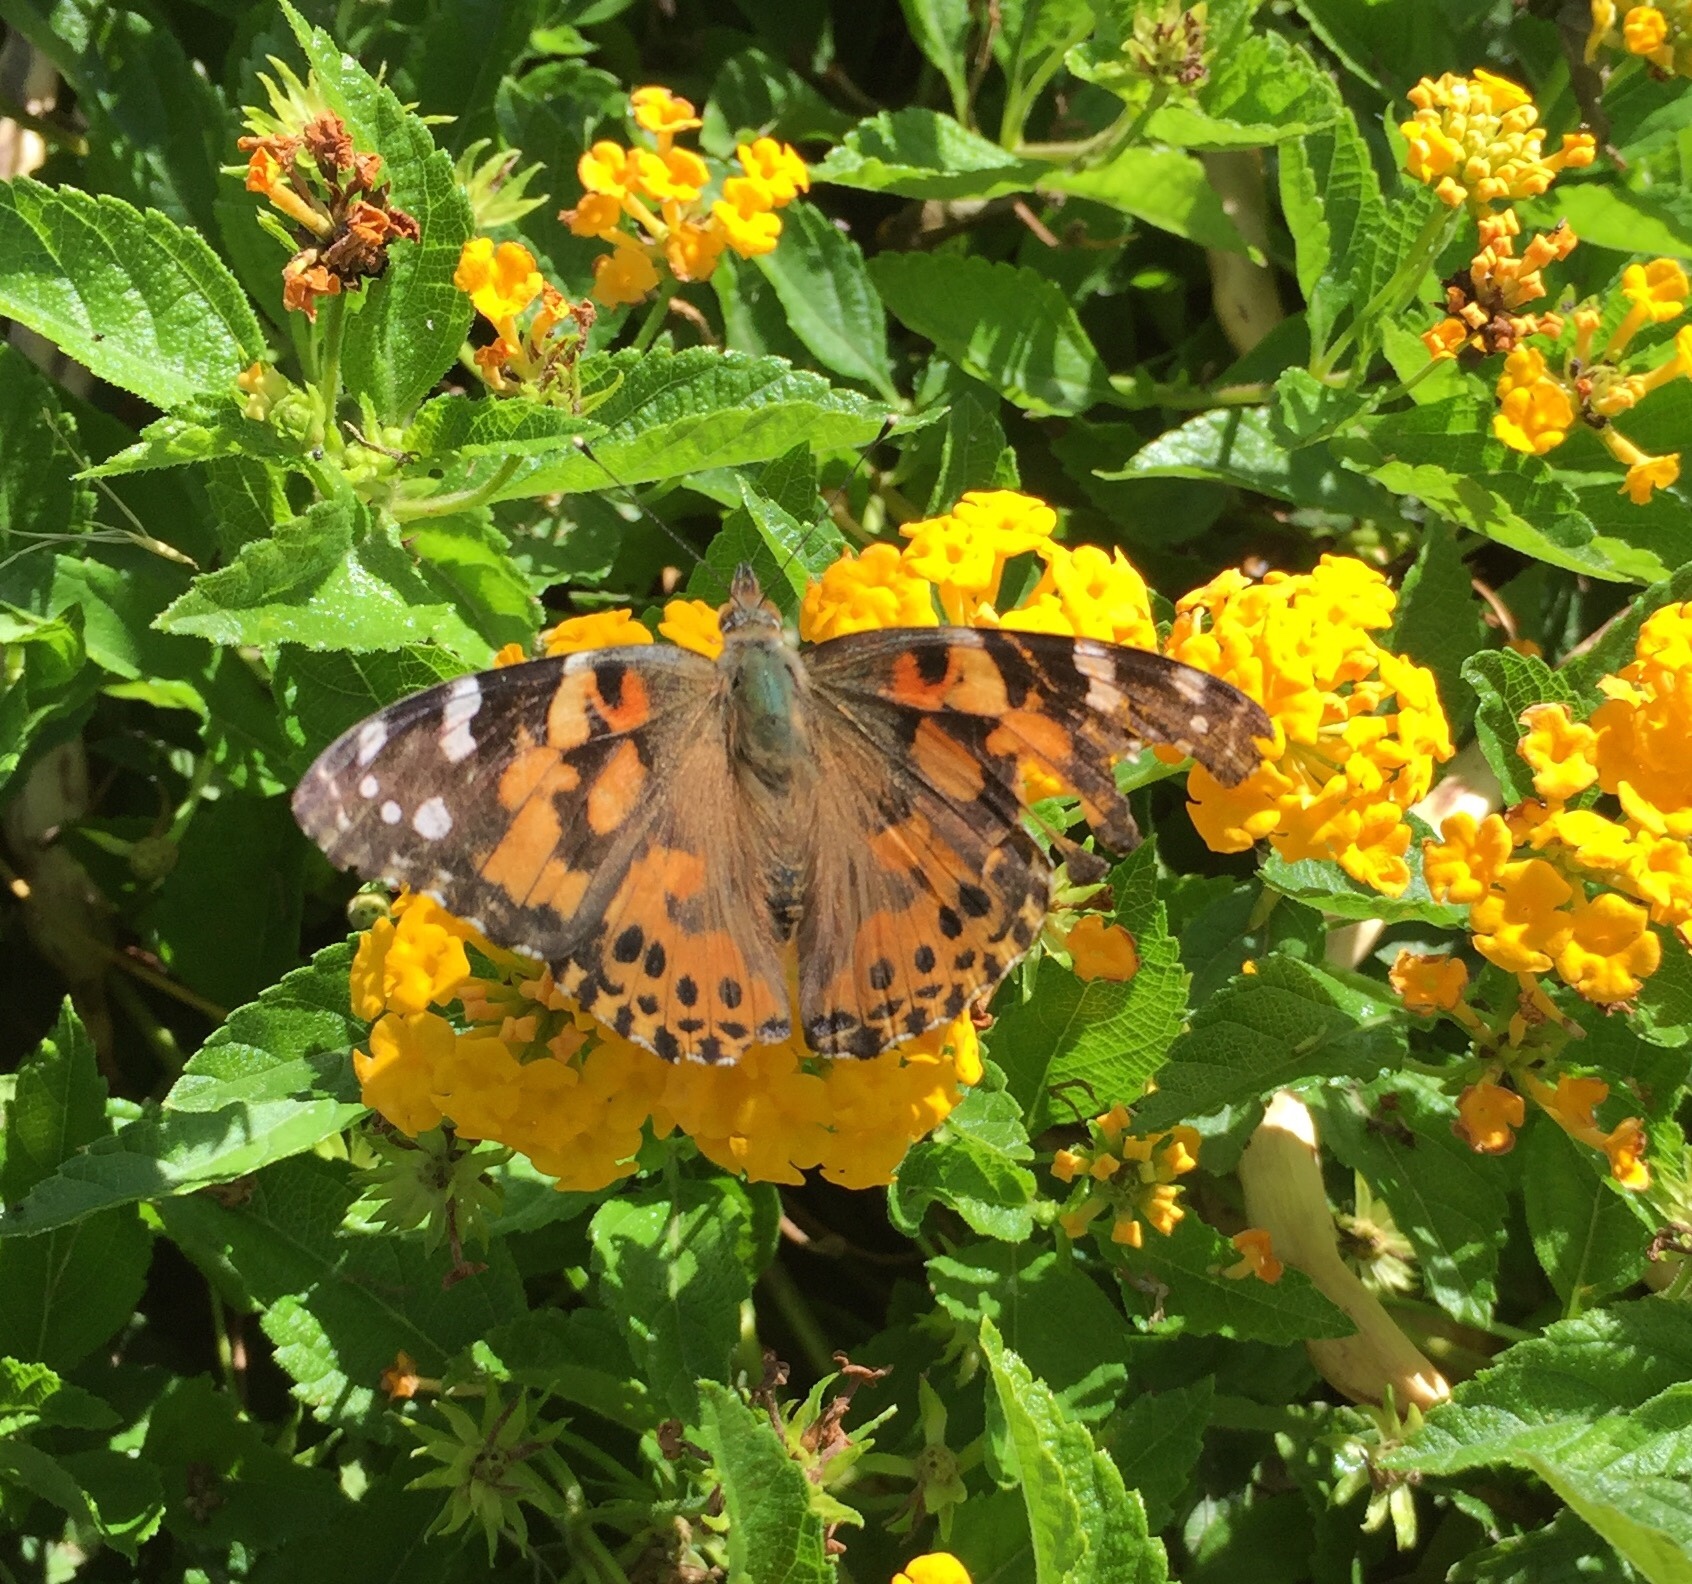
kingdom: Animalia
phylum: Arthropoda
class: Insecta
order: Lepidoptera
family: Nymphalidae
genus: Vanessa
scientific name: Vanessa cardui
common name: Painted lady
